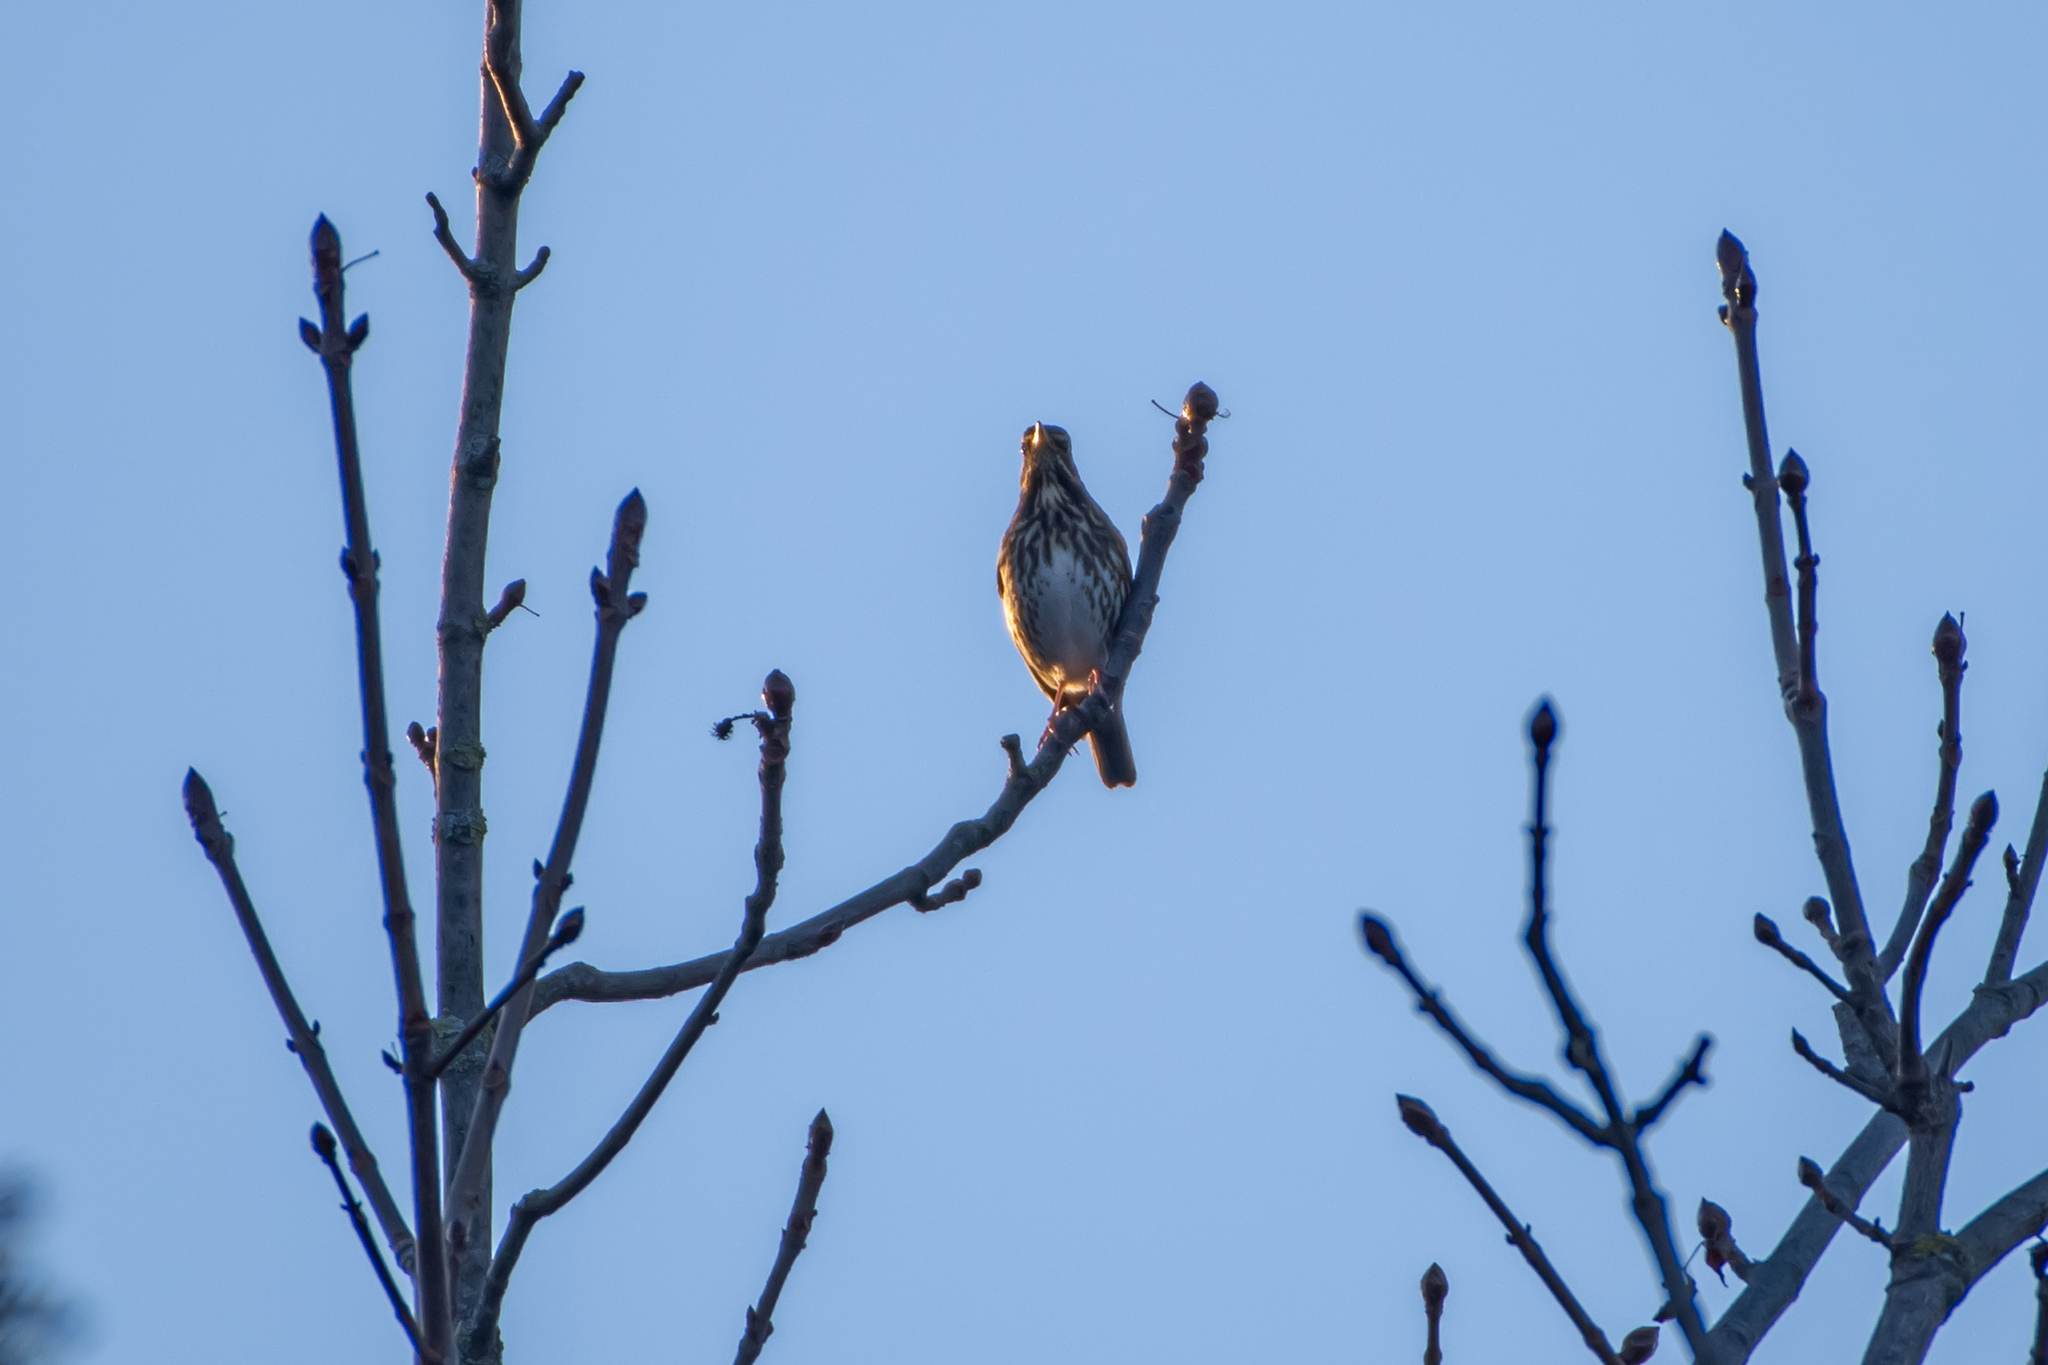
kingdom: Animalia
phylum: Chordata
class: Aves
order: Passeriformes
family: Turdidae
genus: Turdus
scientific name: Turdus iliacus
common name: Redwing
